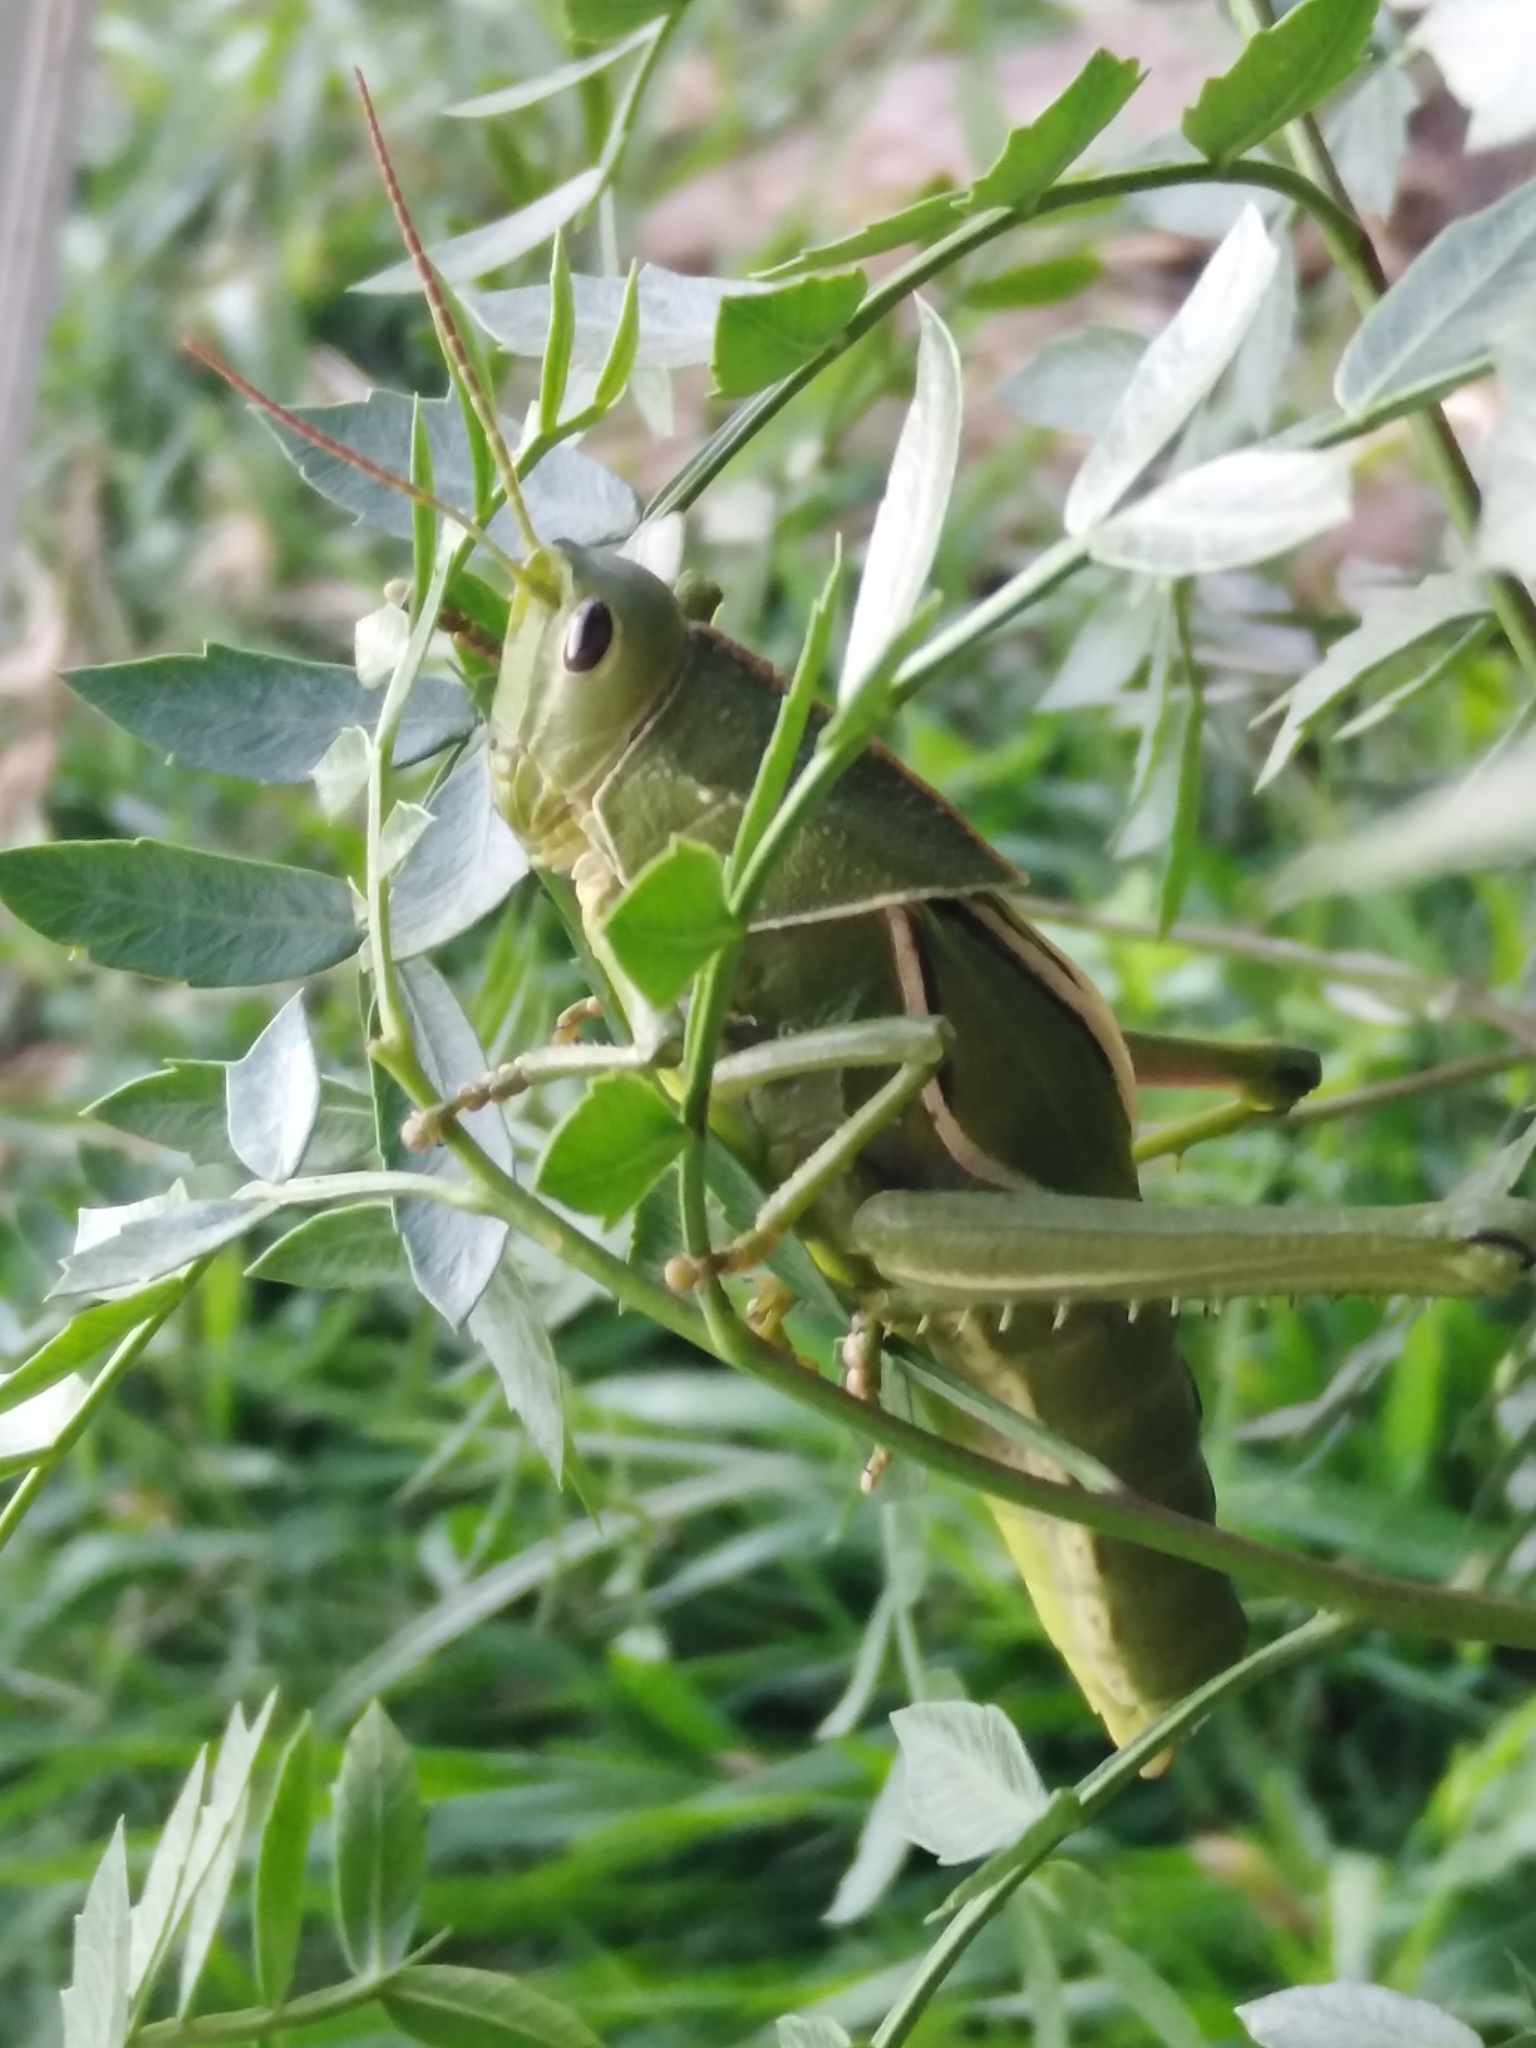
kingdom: Animalia
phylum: Arthropoda
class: Insecta
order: Orthoptera
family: Romaleidae
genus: Staleochlora
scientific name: Staleochlora viridicata
